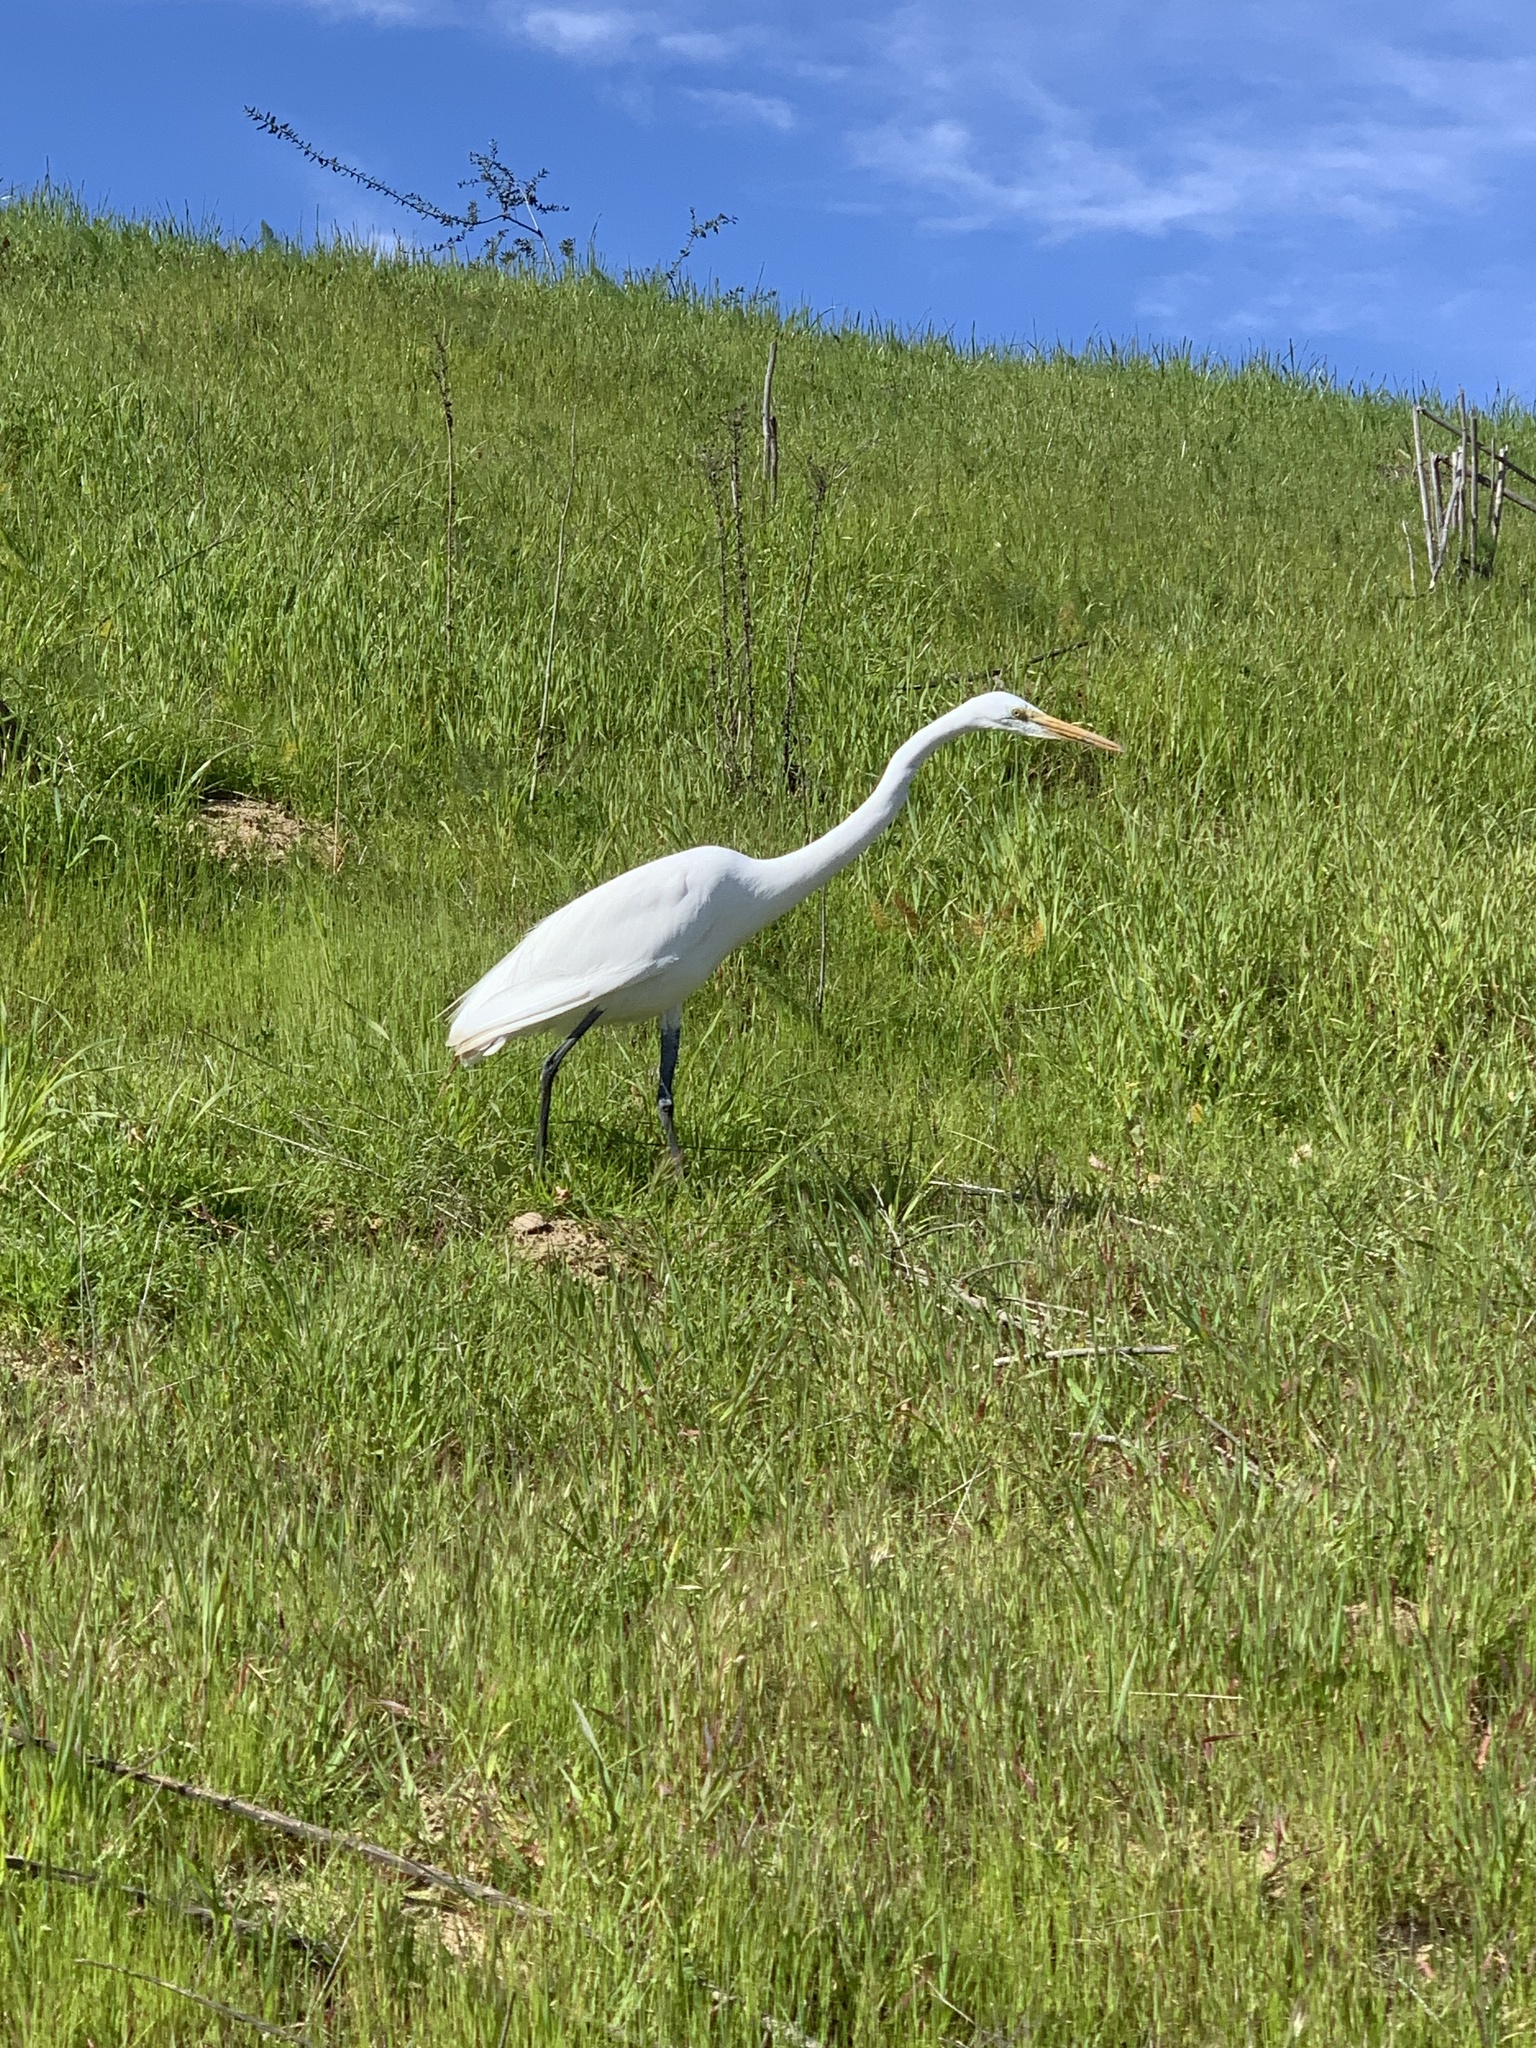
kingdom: Animalia
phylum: Chordata
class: Aves
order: Pelecaniformes
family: Ardeidae
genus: Ardea
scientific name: Ardea alba
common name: Great egret
